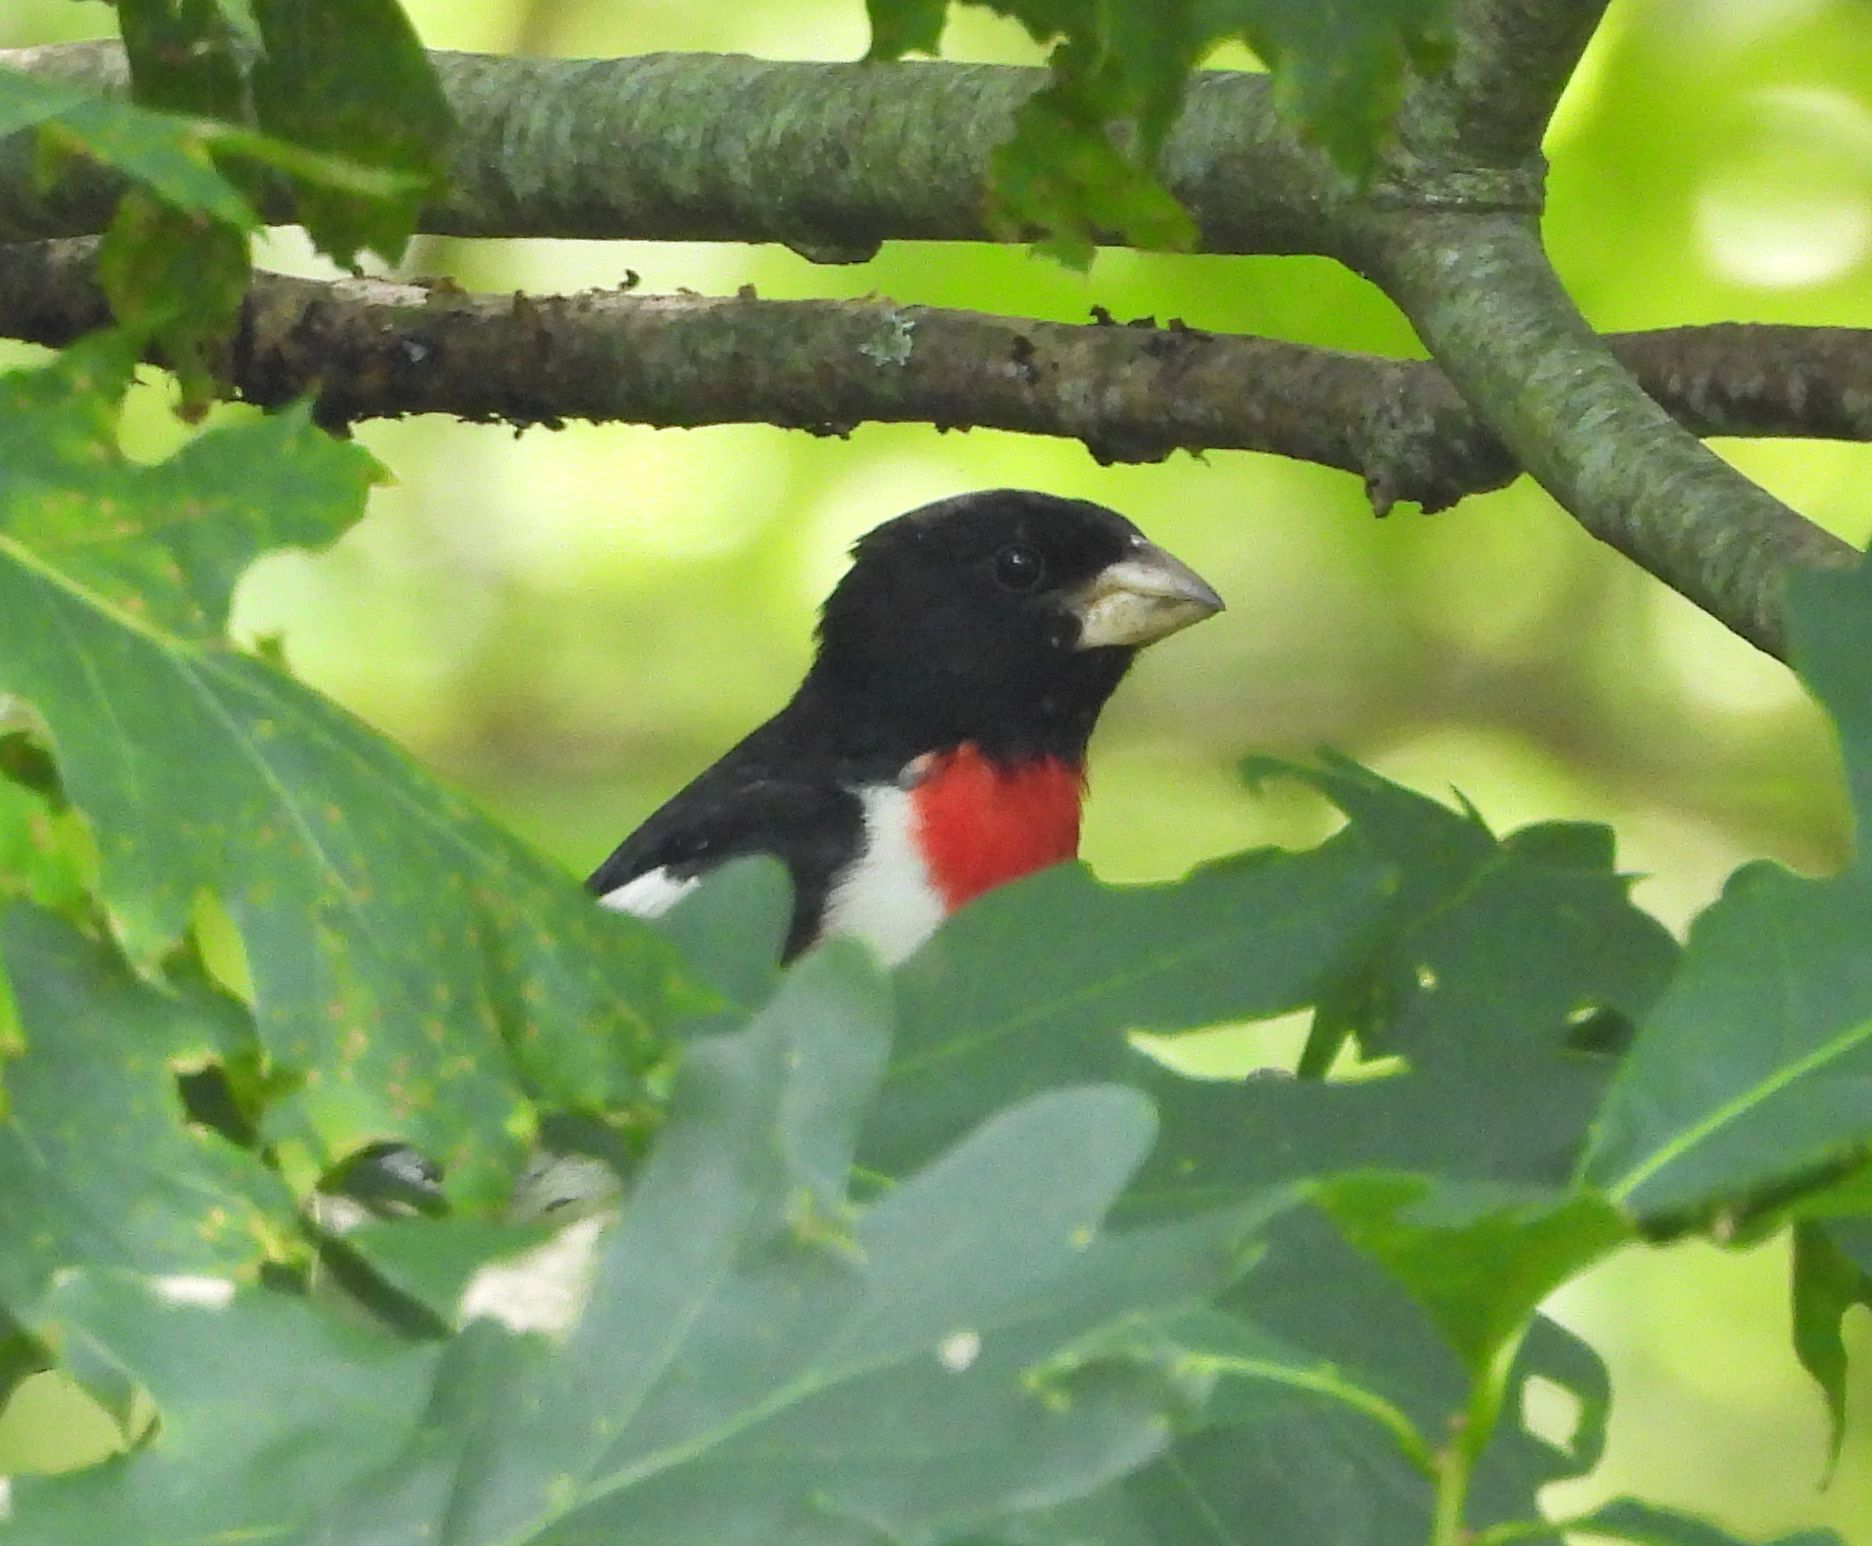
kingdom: Animalia
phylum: Chordata
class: Aves
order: Passeriformes
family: Cardinalidae
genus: Pheucticus
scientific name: Pheucticus ludovicianus
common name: Rose-breasted grosbeak
